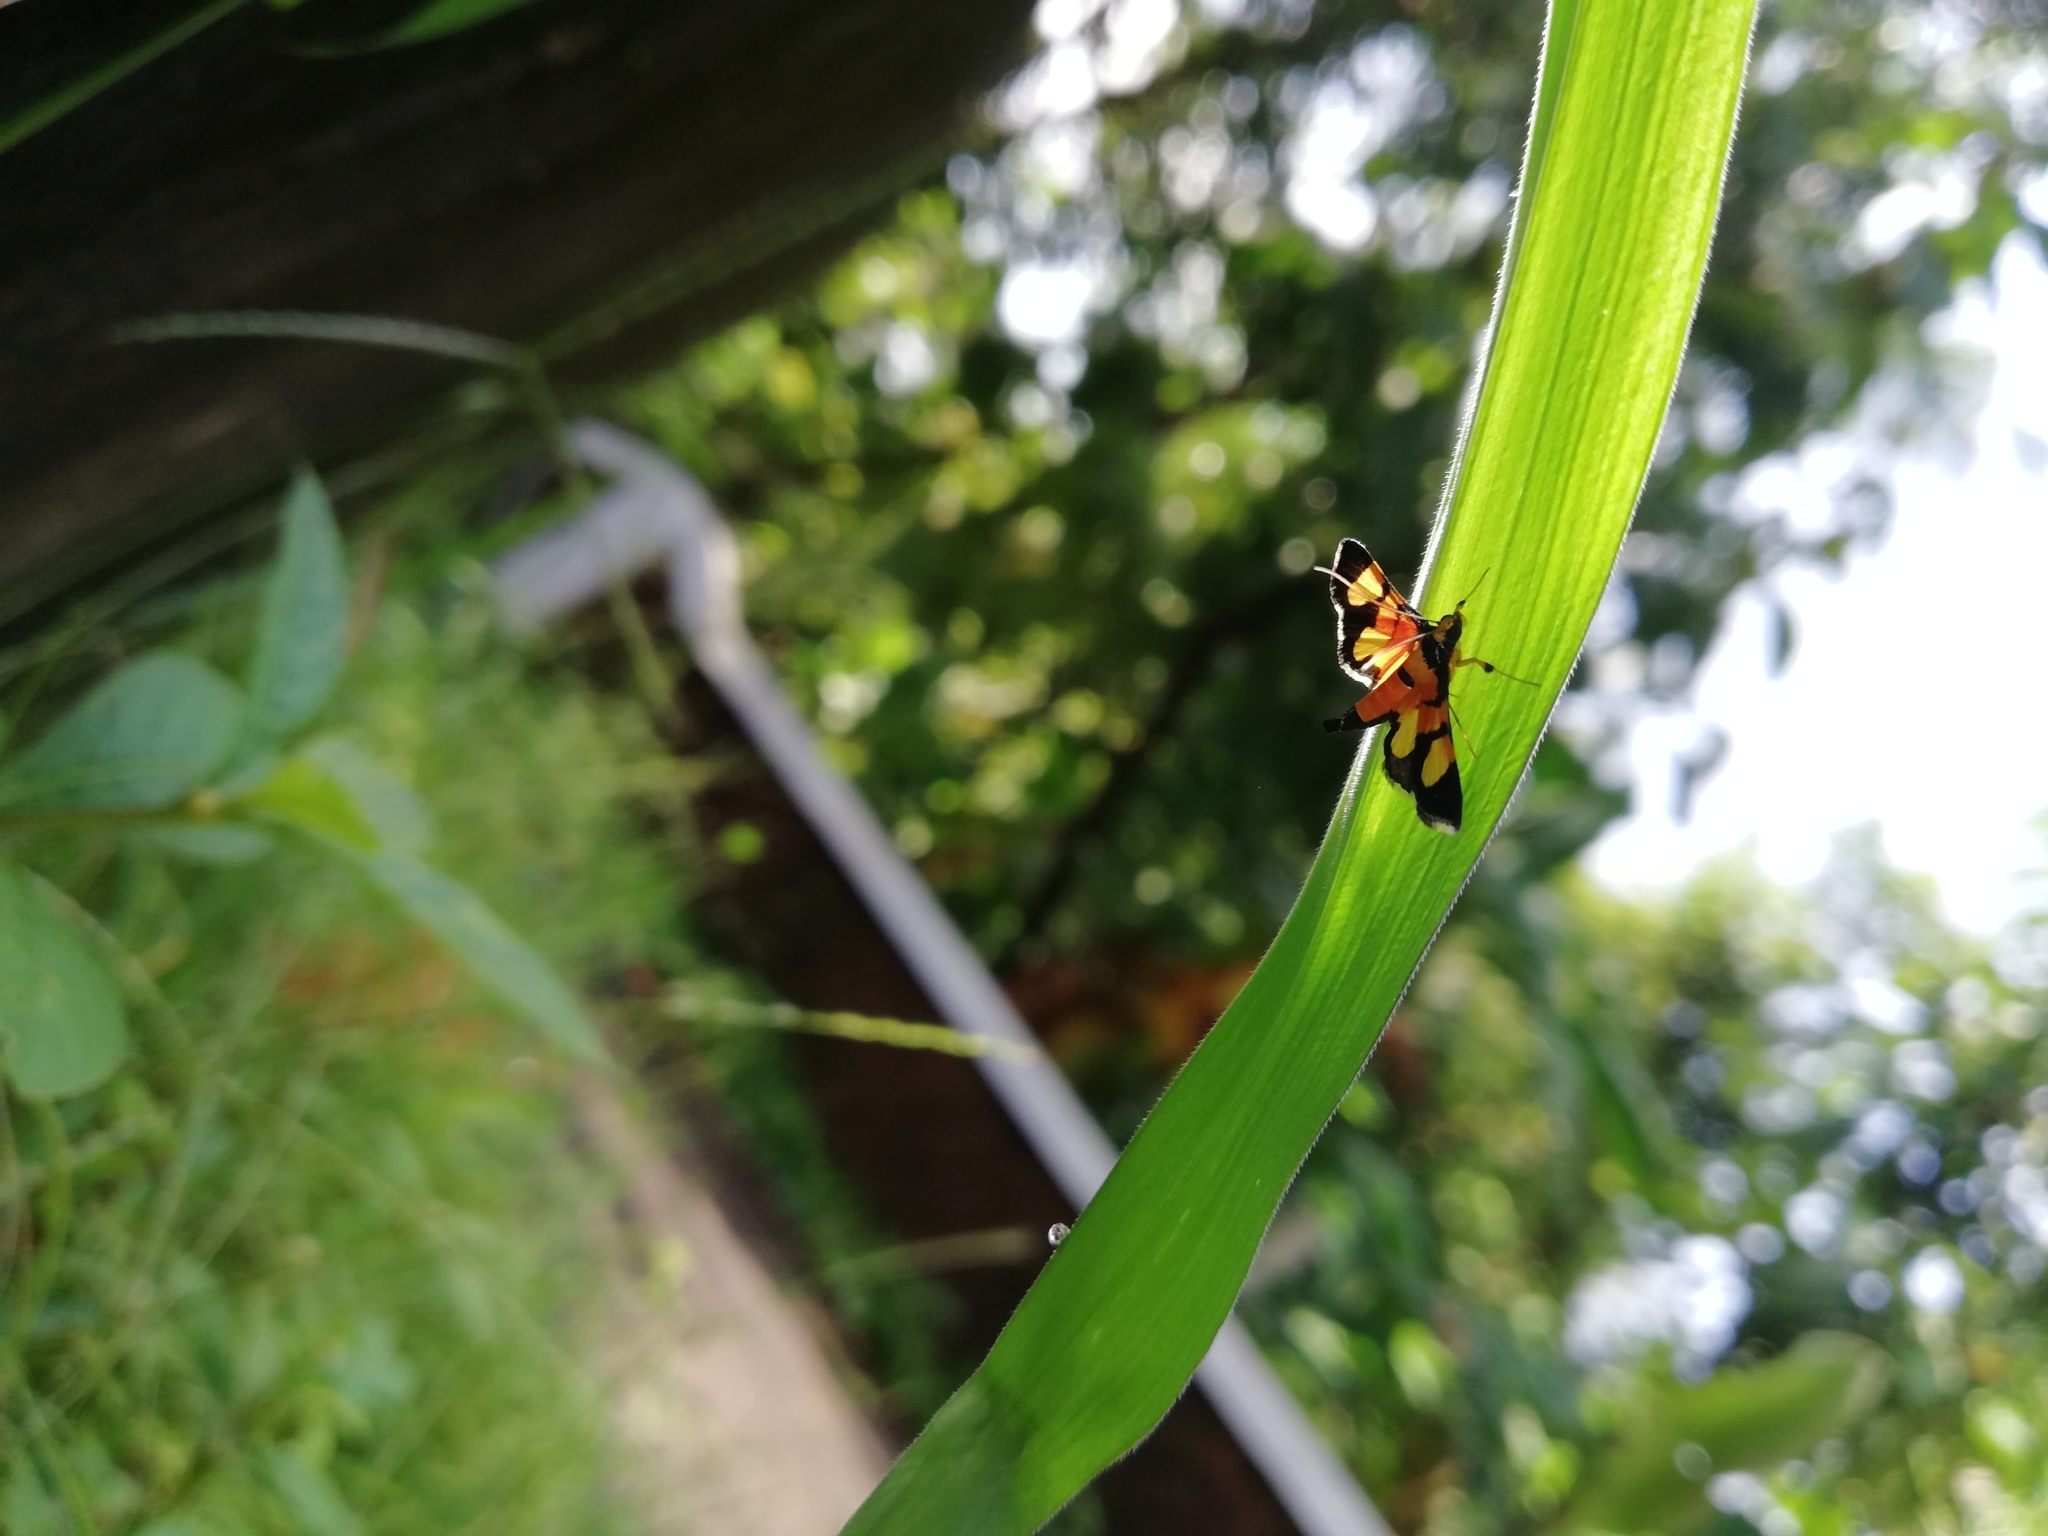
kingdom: Animalia
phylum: Arthropoda
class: Insecta
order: Lepidoptera
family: Crambidae
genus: Aethaloessa
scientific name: Aethaloessa calidalis
